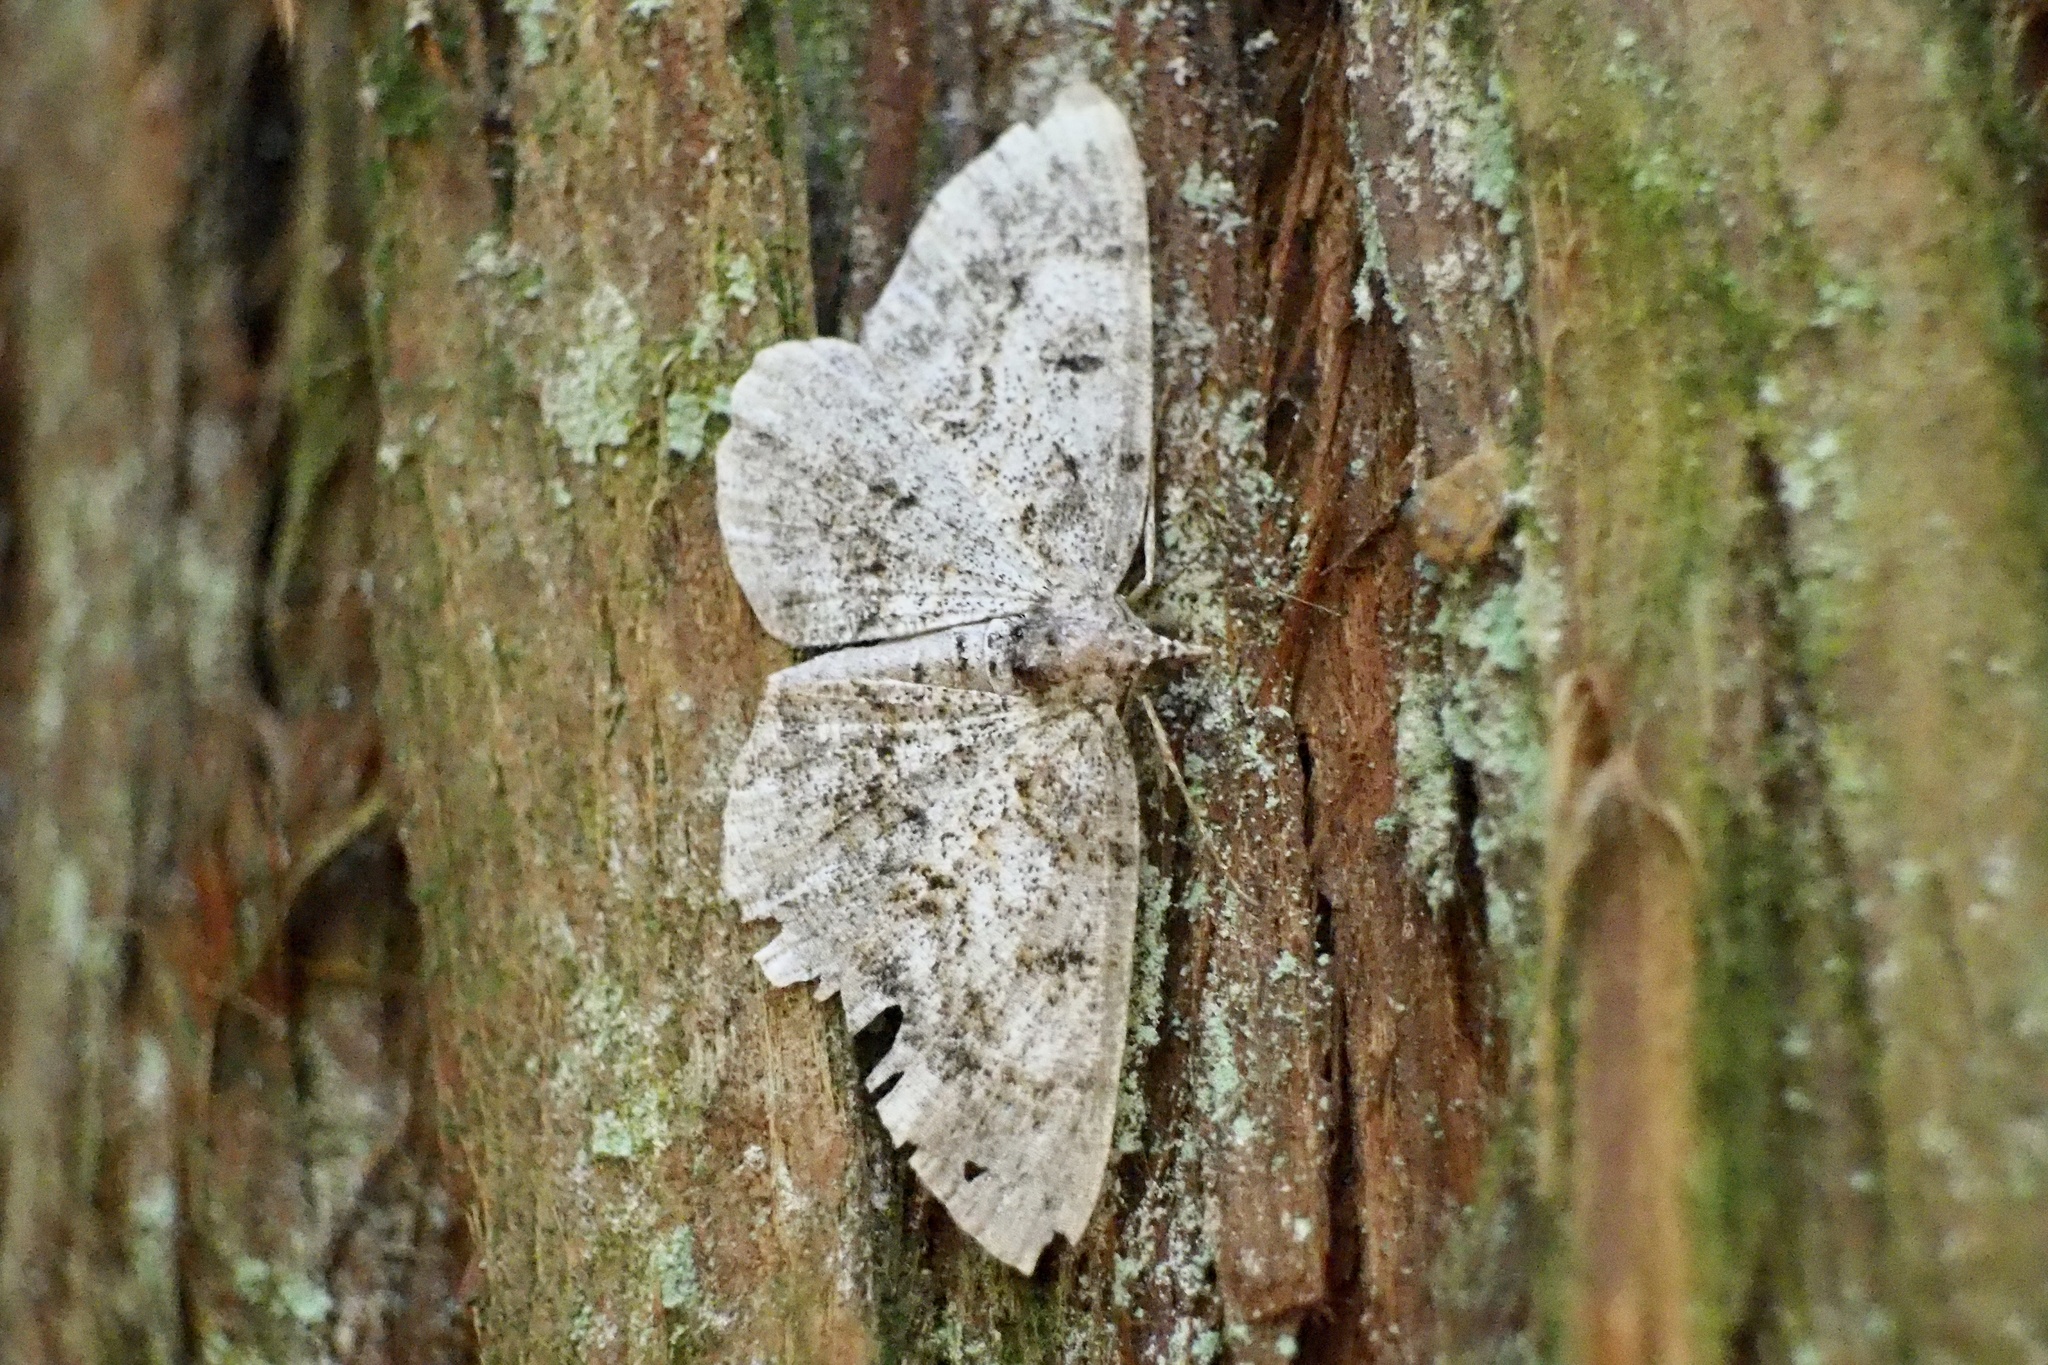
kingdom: Animalia
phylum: Arthropoda
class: Insecta
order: Lepidoptera
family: Geometridae
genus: Protoboarmia
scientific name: Protoboarmia faustinata
